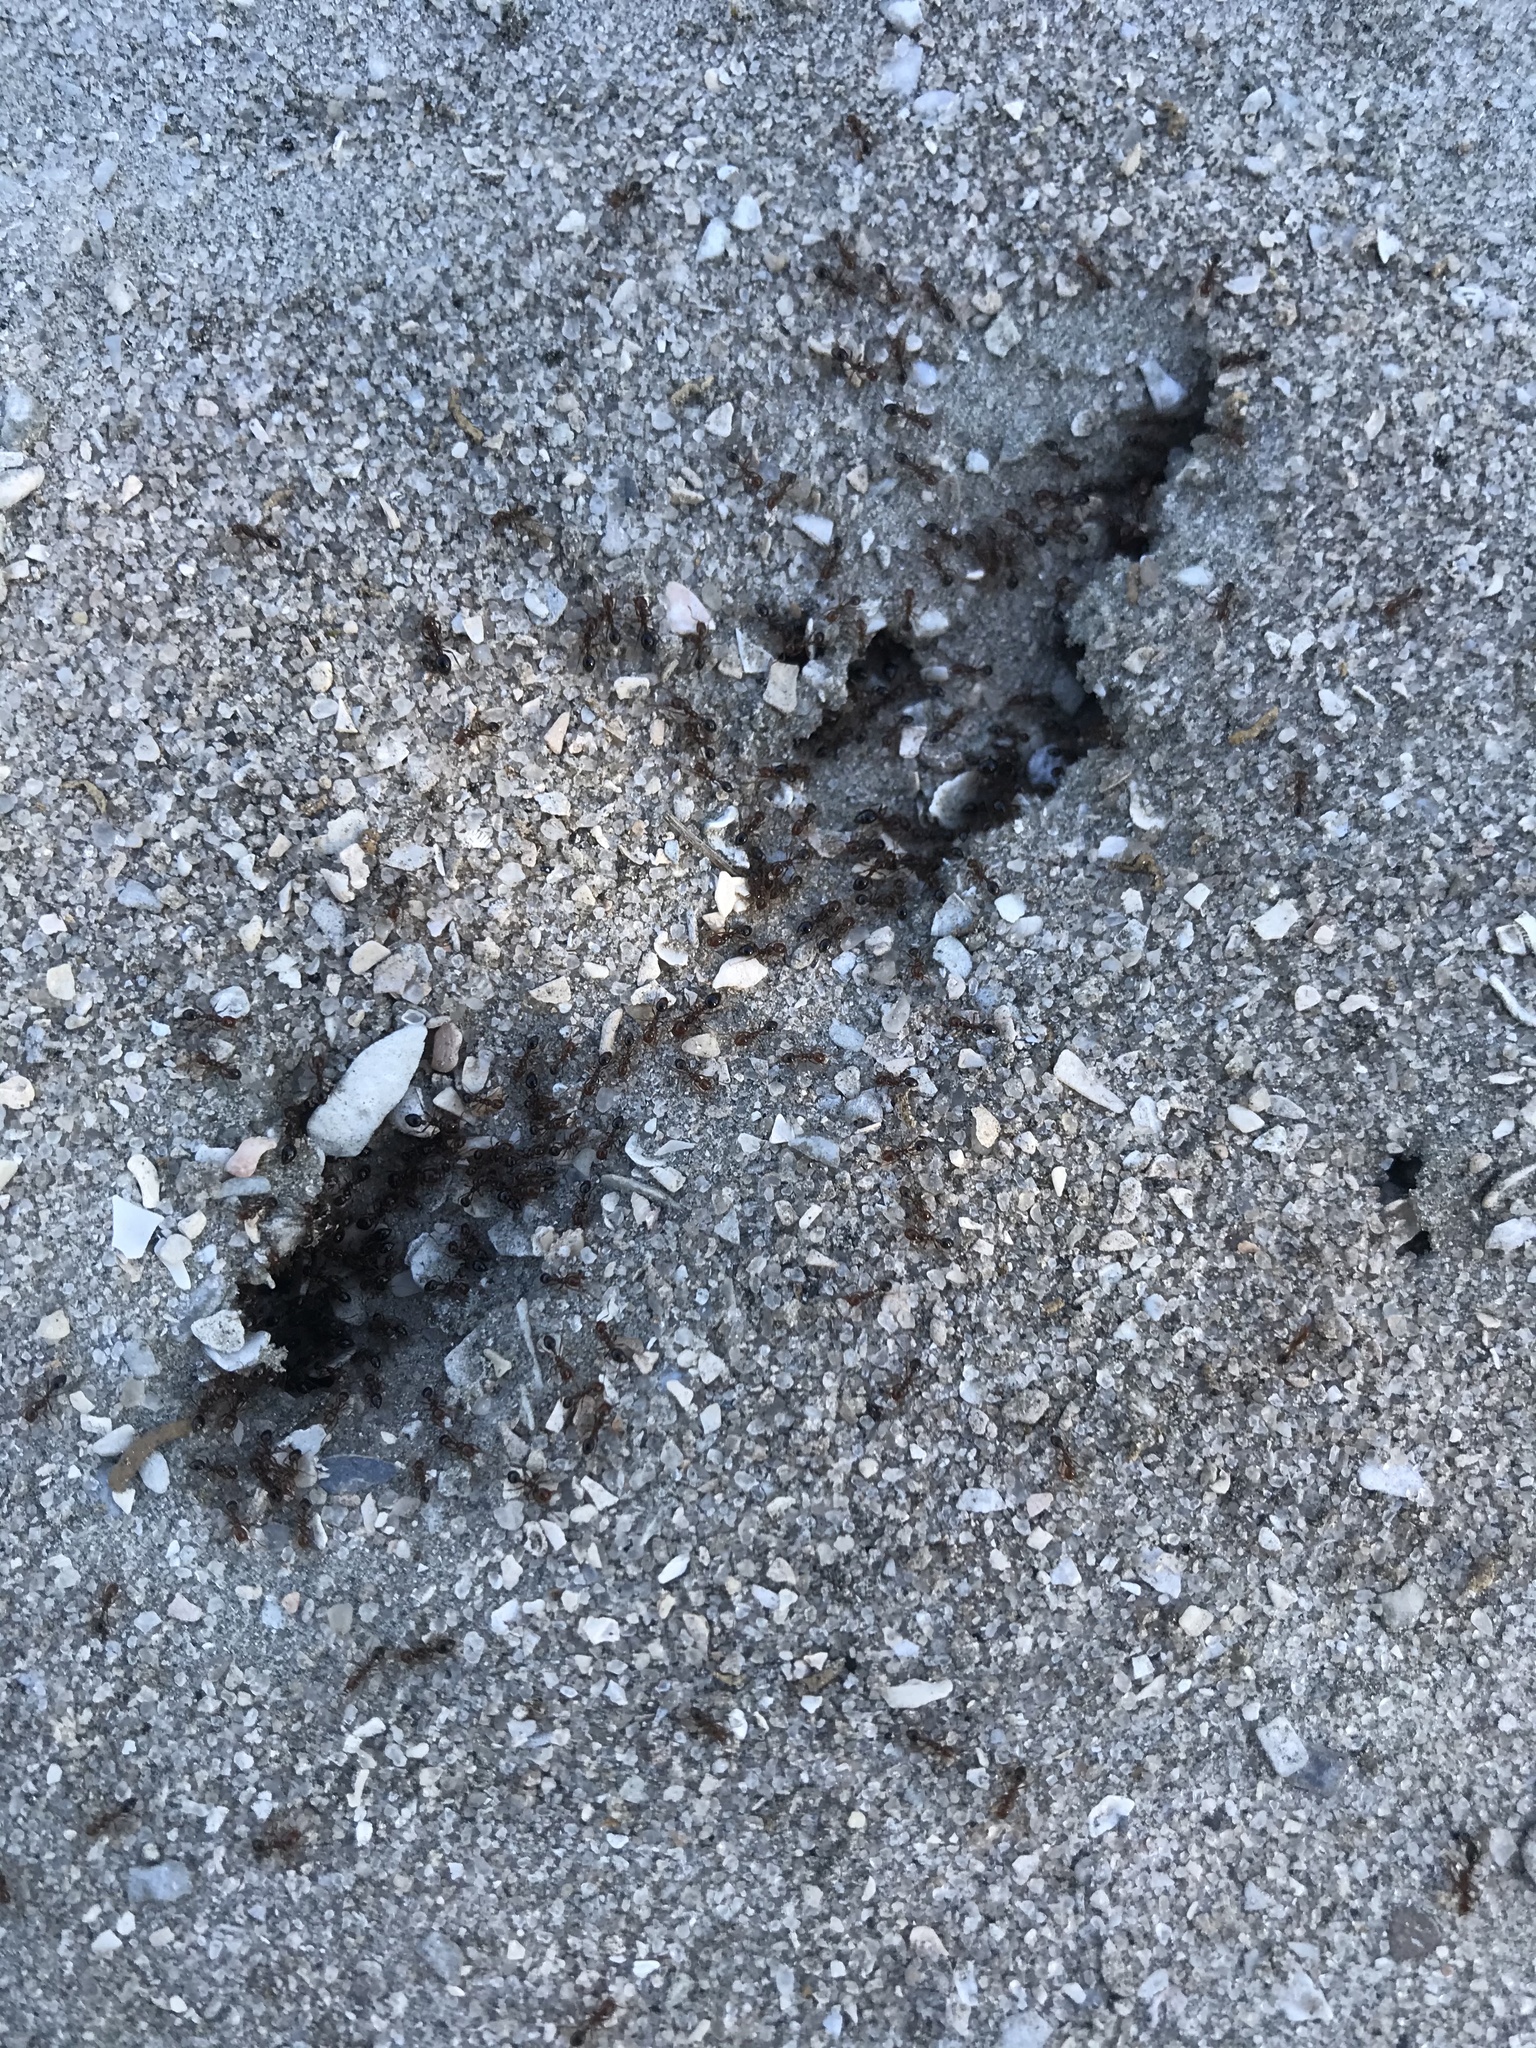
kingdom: Animalia
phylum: Arthropoda
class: Insecta
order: Hymenoptera
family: Formicidae
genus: Solenopsis
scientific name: Solenopsis invicta
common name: Red imported fire ant
